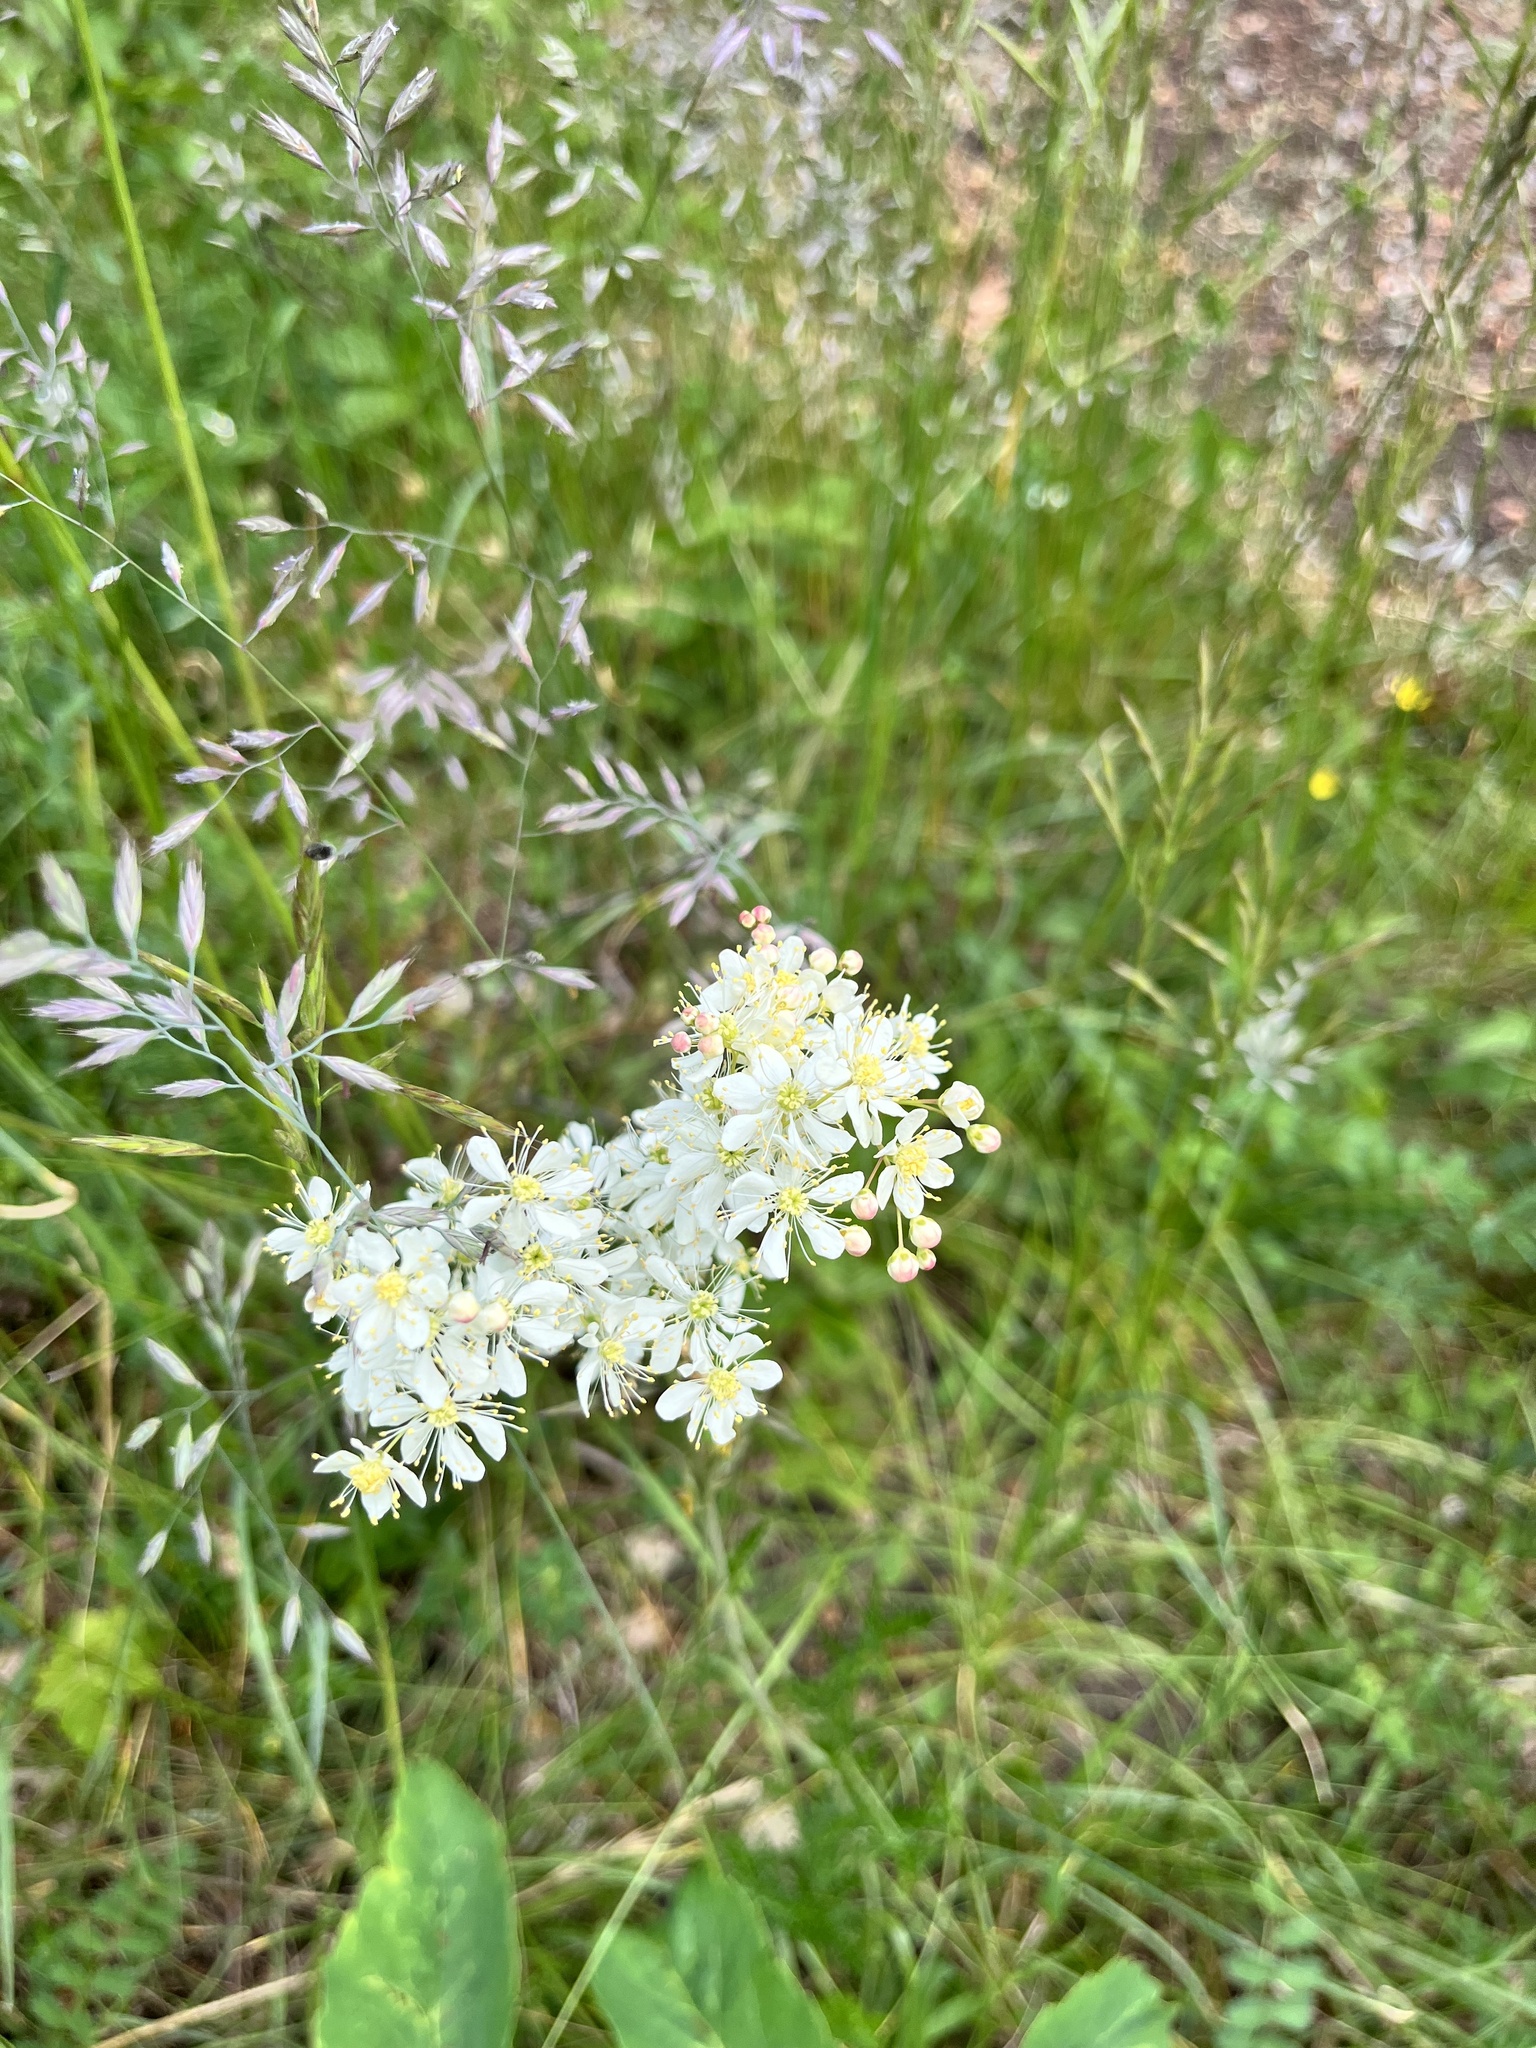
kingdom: Plantae
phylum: Tracheophyta
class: Magnoliopsida
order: Rosales
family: Rosaceae
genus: Filipendula
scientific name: Filipendula vulgaris
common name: Dropwort
